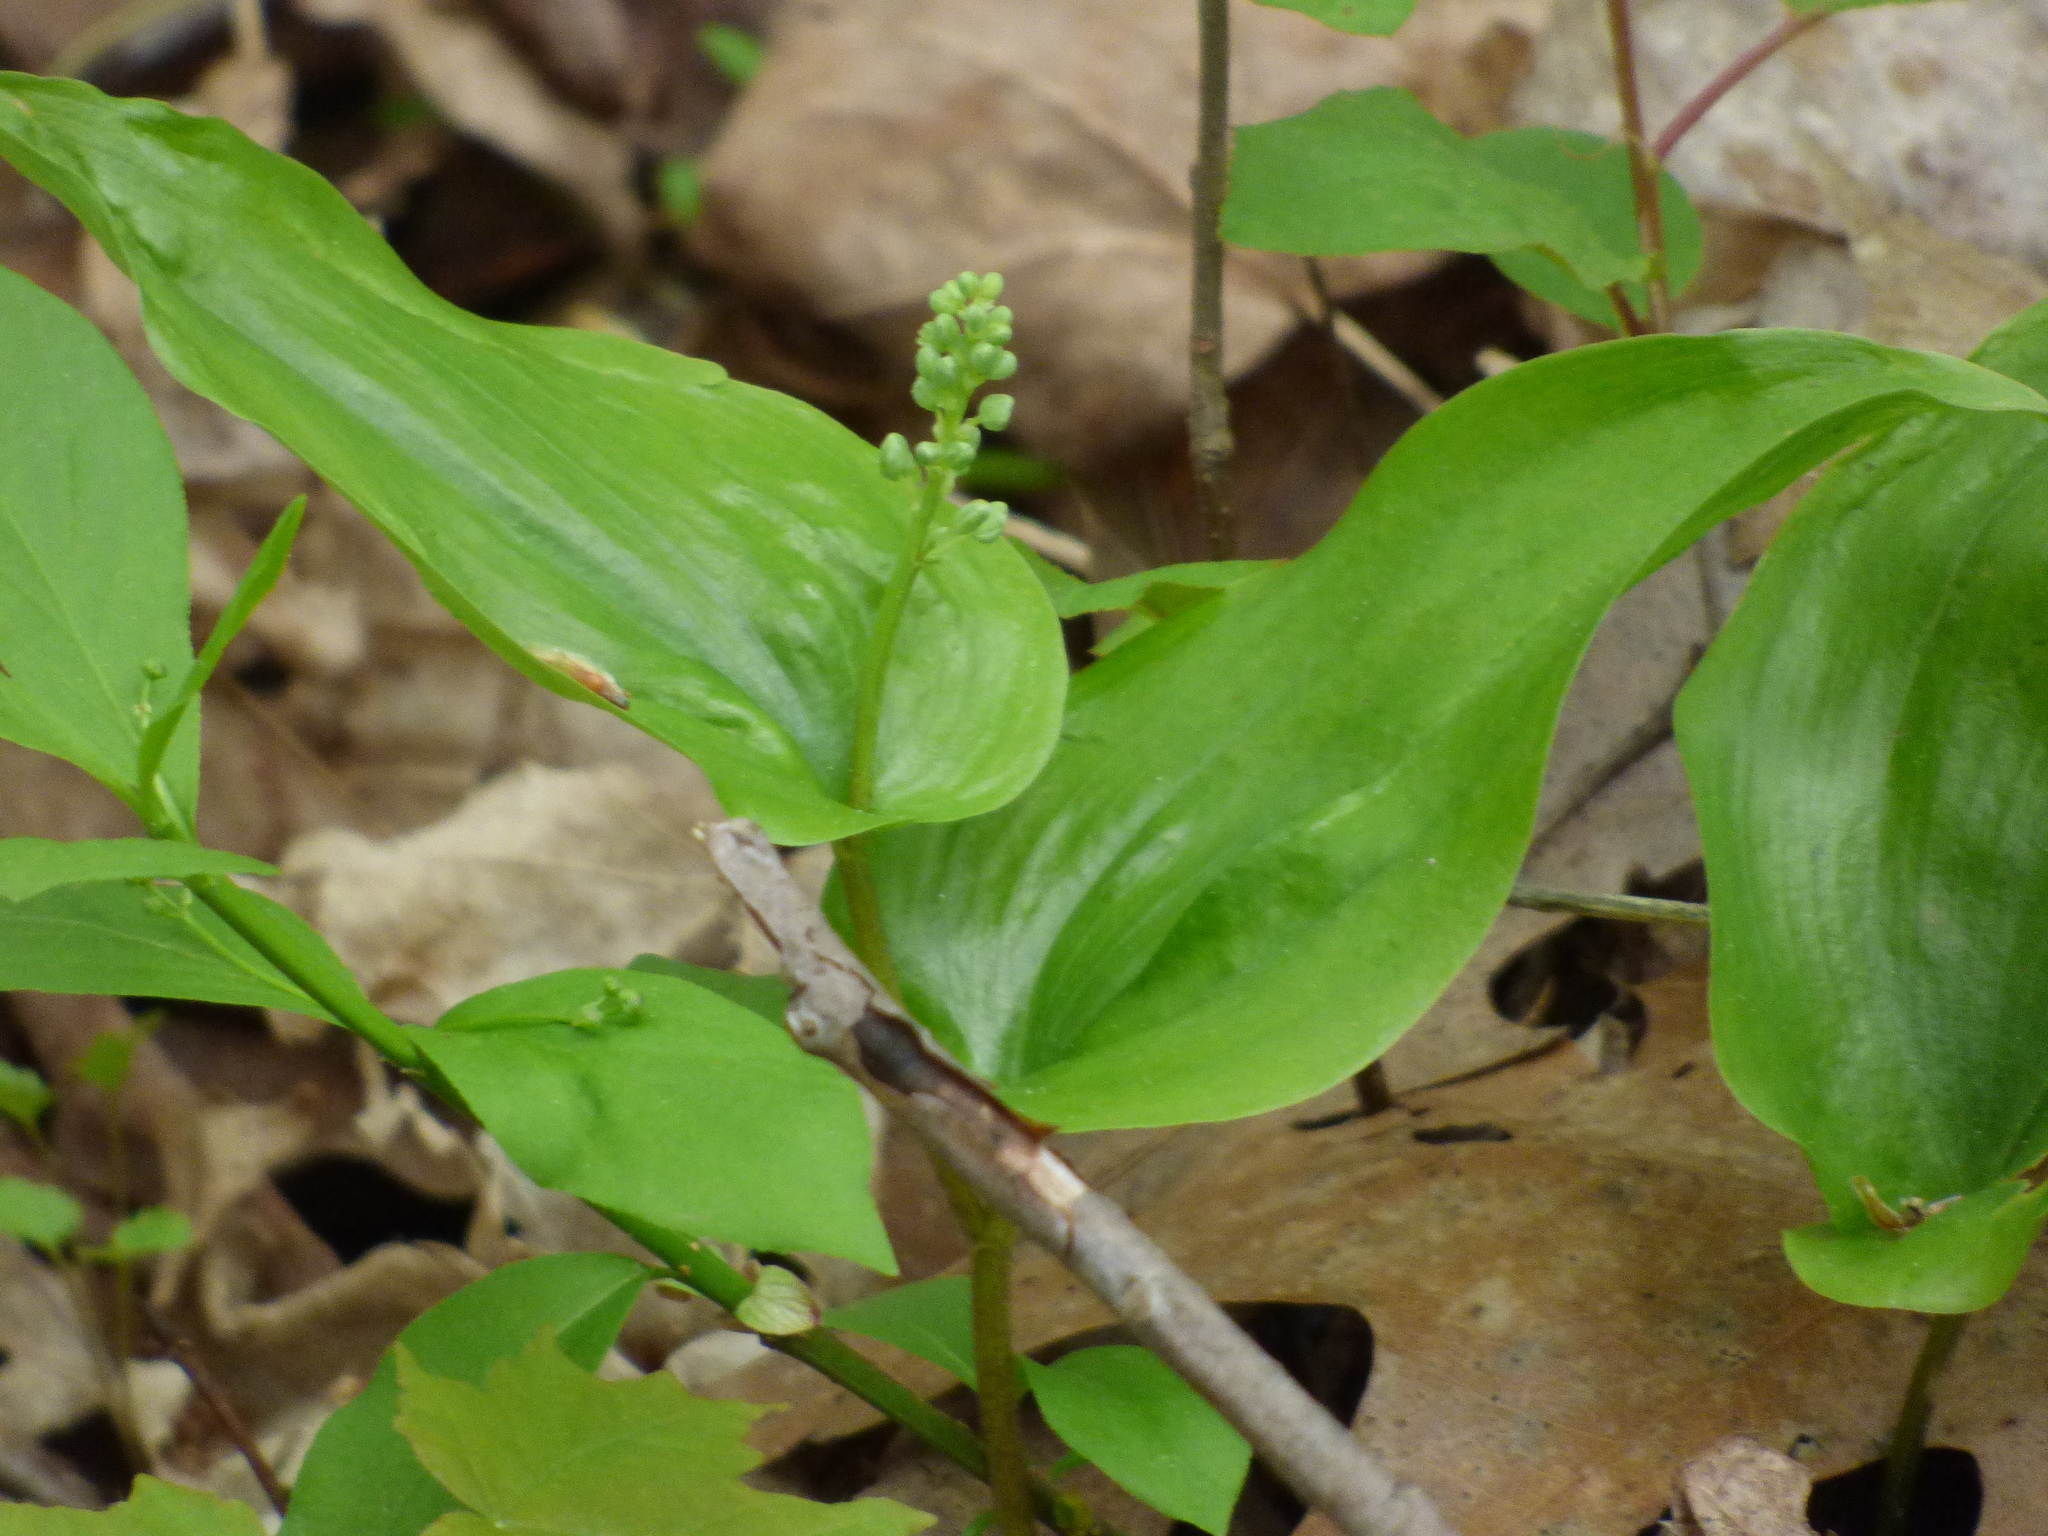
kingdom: Plantae
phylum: Tracheophyta
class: Liliopsida
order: Asparagales
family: Asparagaceae
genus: Maianthemum
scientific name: Maianthemum canadense
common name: False lily-of-the-valley
